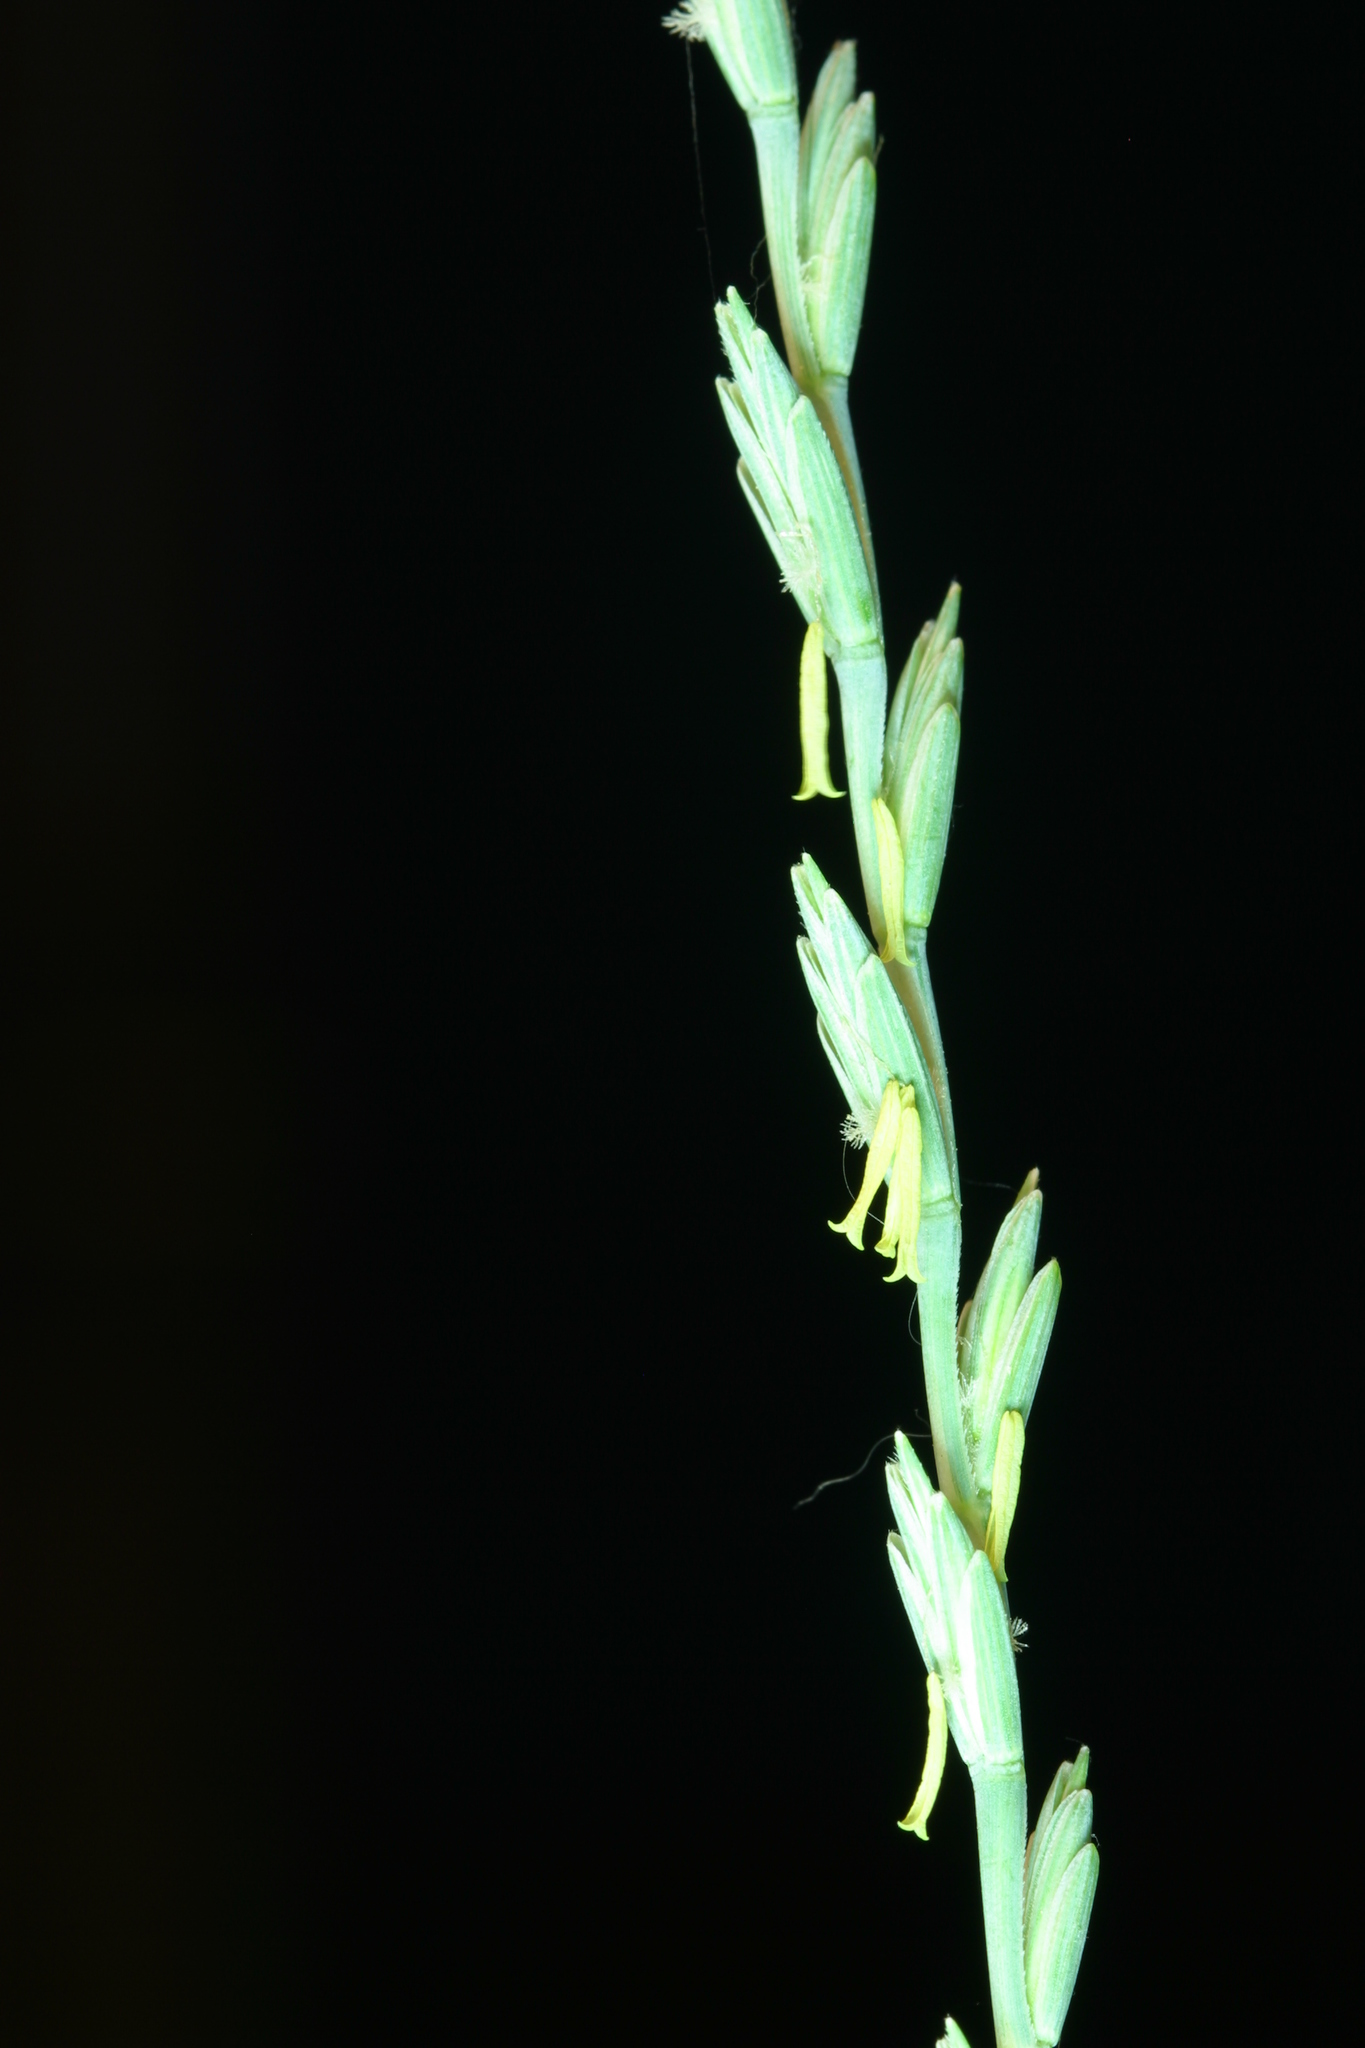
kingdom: Plantae
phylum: Tracheophyta
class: Liliopsida
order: Poales
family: Poaceae
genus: Thinopyrum
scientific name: Thinopyrum intermedium
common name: Intermediate wheatgrass
